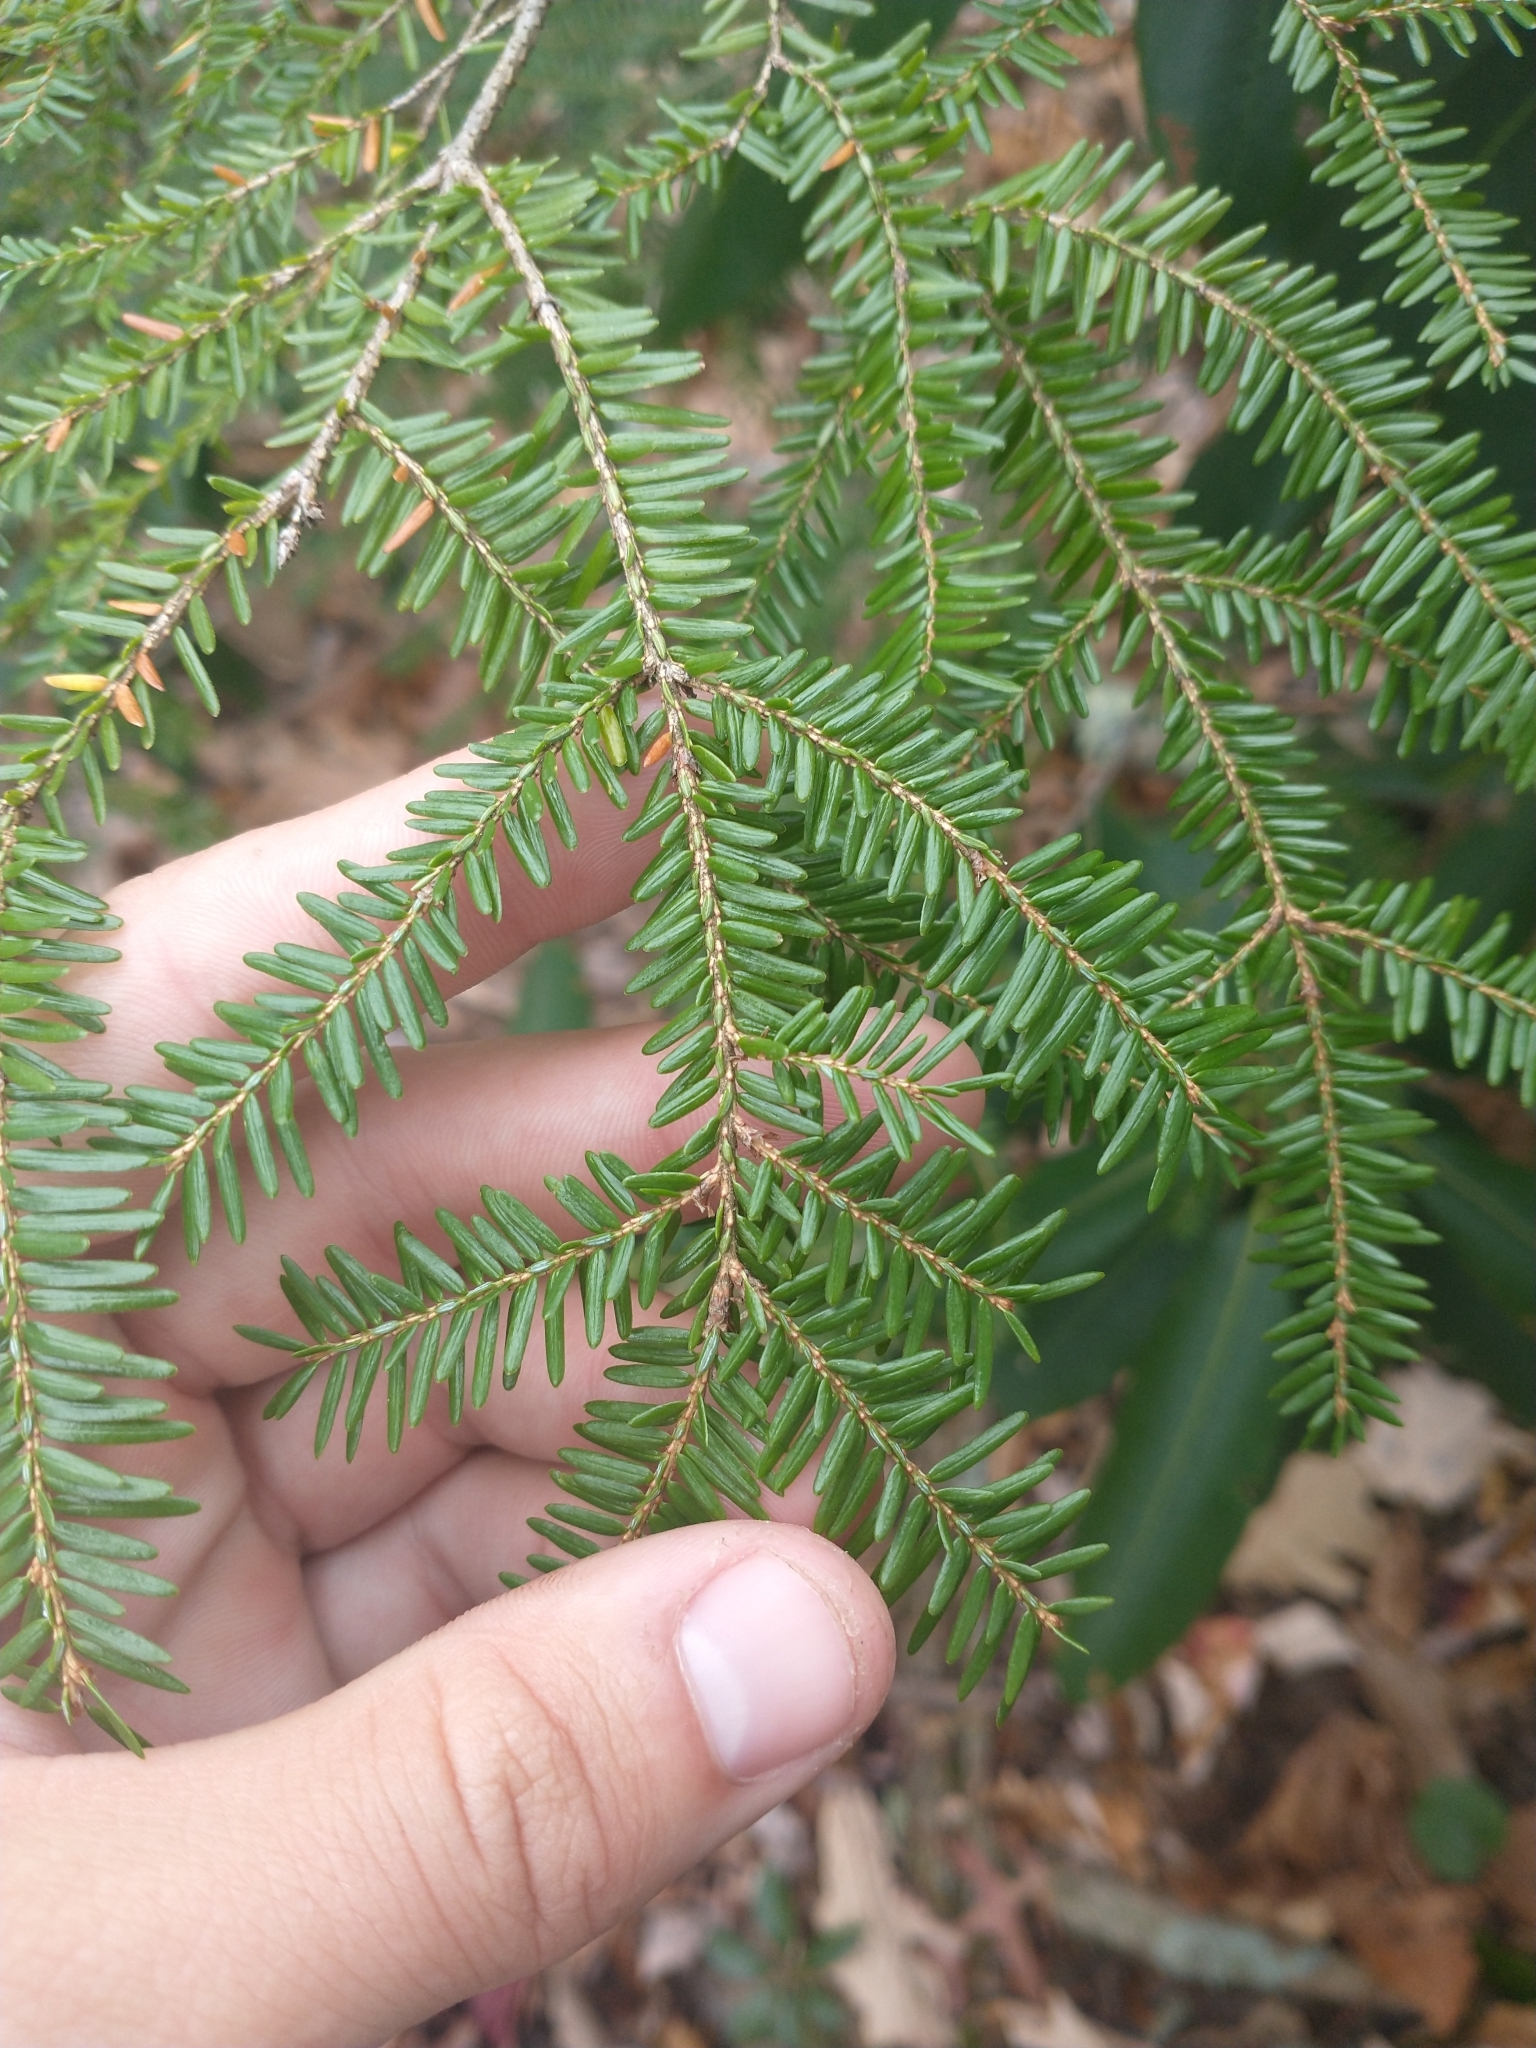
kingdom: Plantae
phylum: Tracheophyta
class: Pinopsida
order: Pinales
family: Pinaceae
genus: Tsuga
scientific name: Tsuga canadensis
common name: Eastern hemlock
